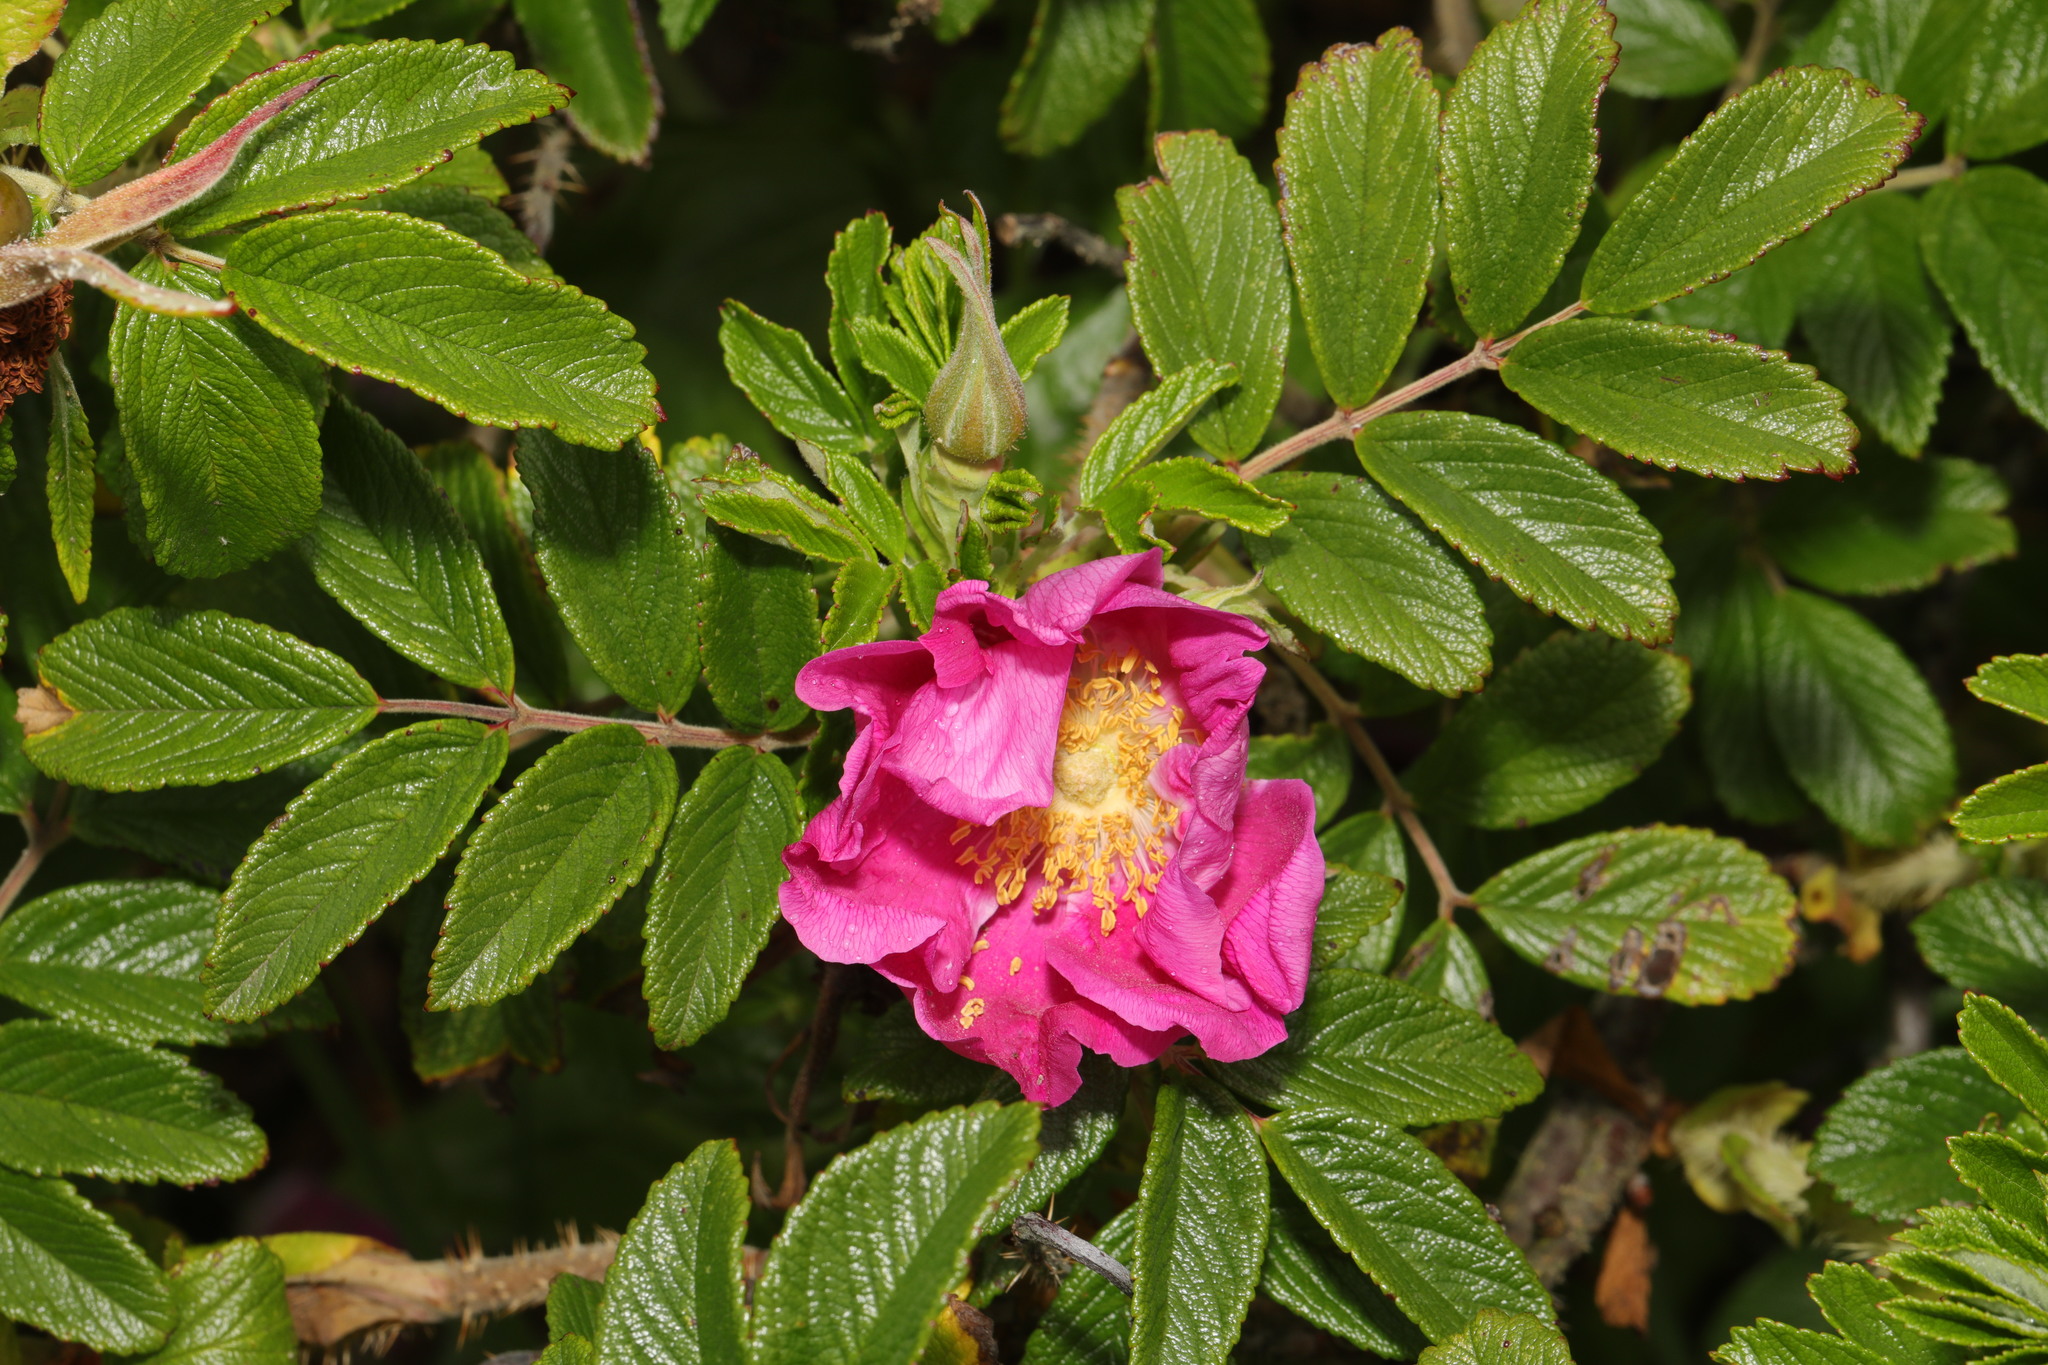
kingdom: Plantae
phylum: Tracheophyta
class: Magnoliopsida
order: Rosales
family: Rosaceae
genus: Rosa
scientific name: Rosa rugosa
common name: Japanese rose
